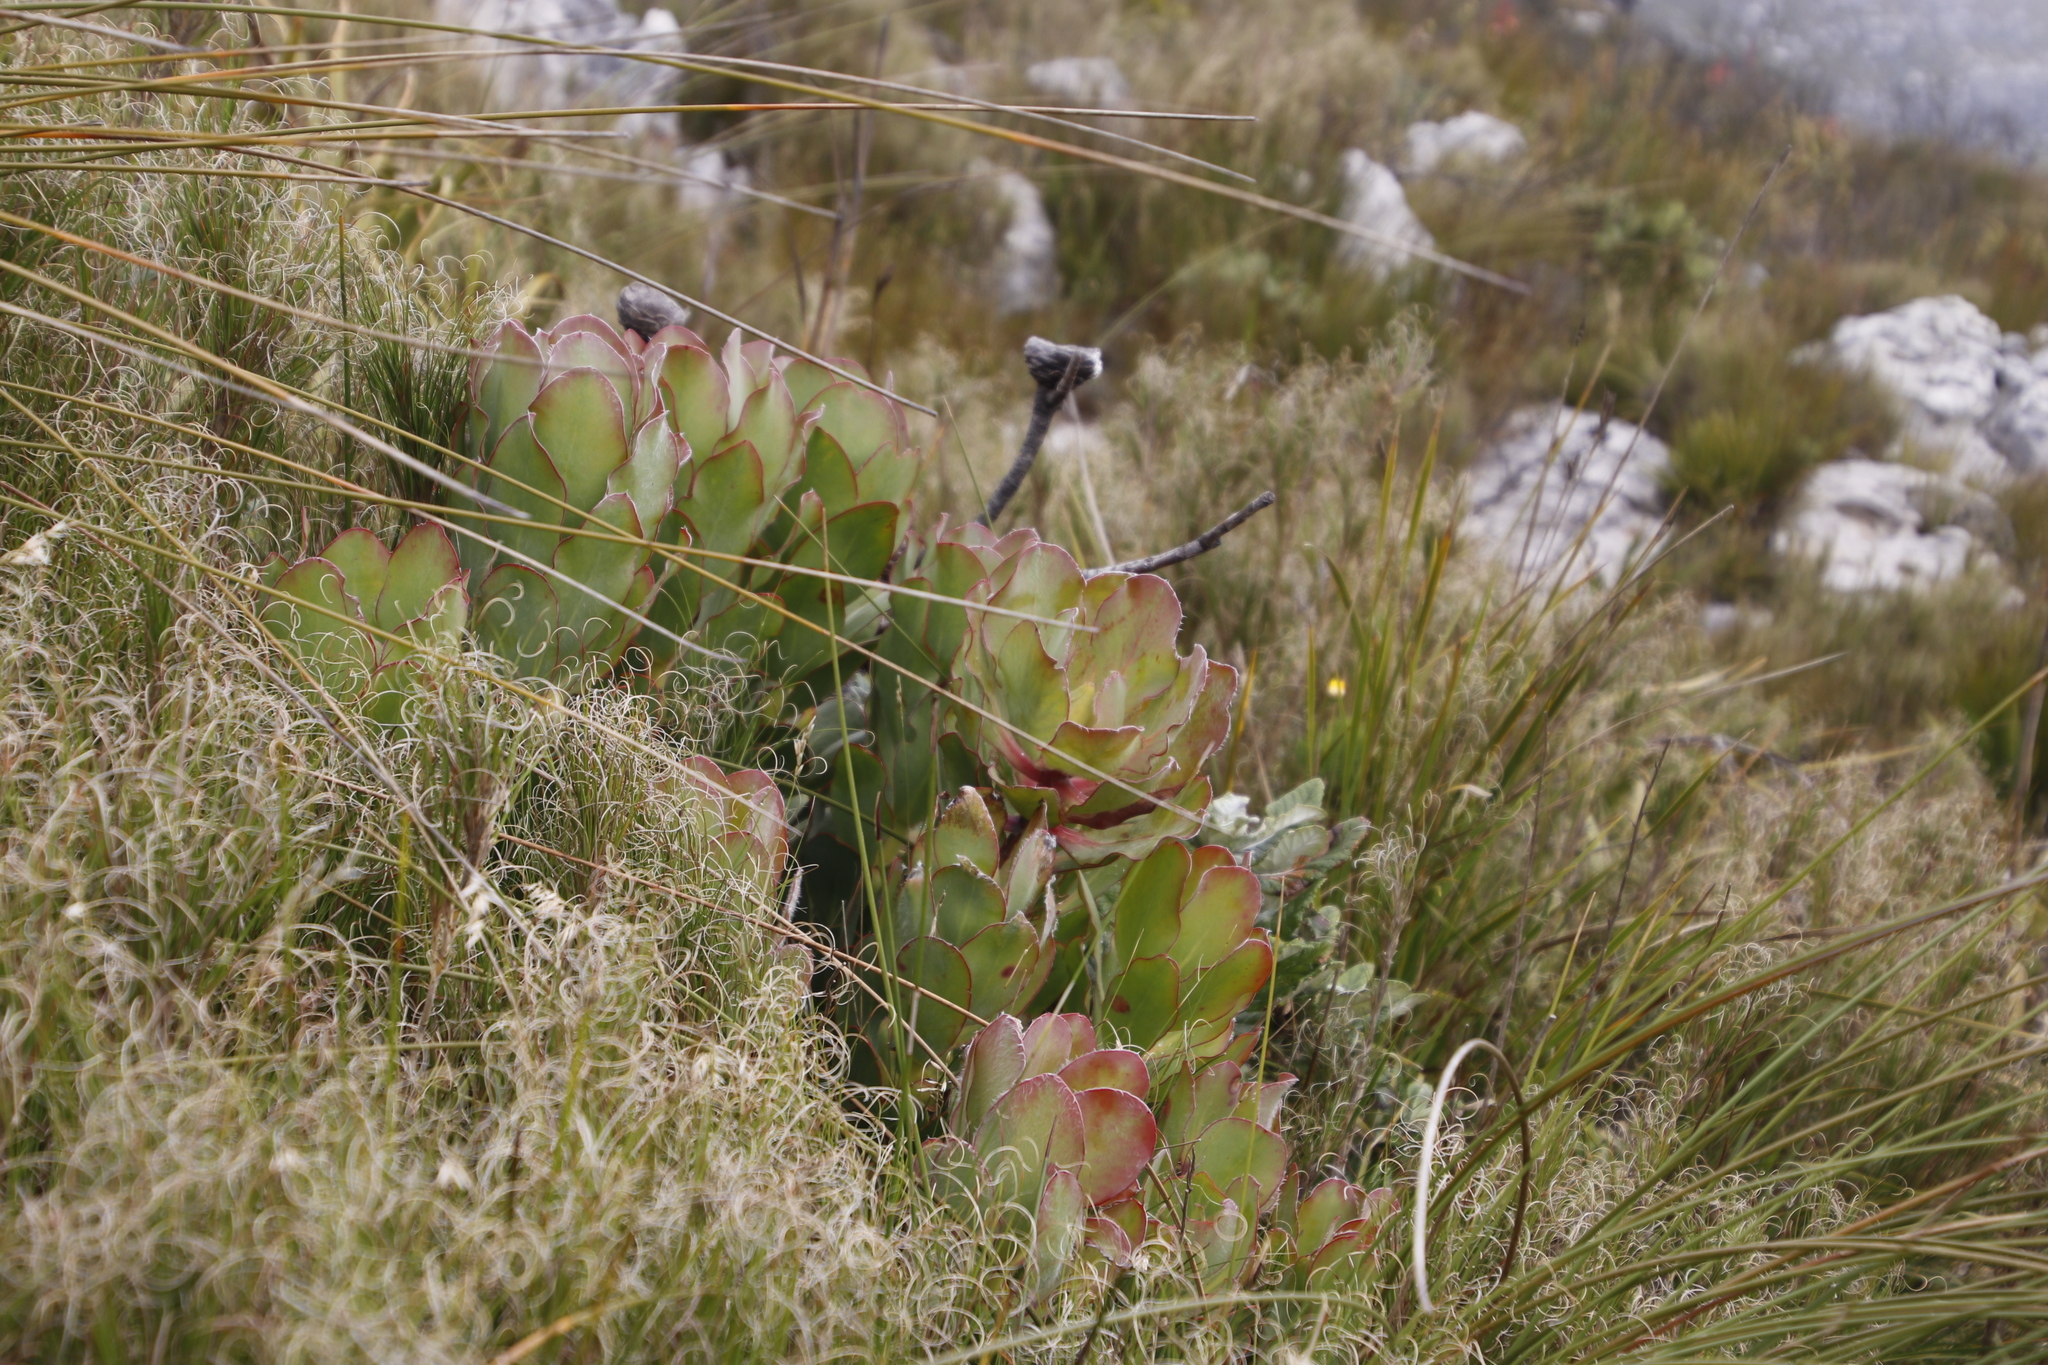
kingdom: Plantae
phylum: Tracheophyta
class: Magnoliopsida
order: Proteales
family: Proteaceae
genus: Protea
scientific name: Protea speciosa
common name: Brown-beard sugarbush
